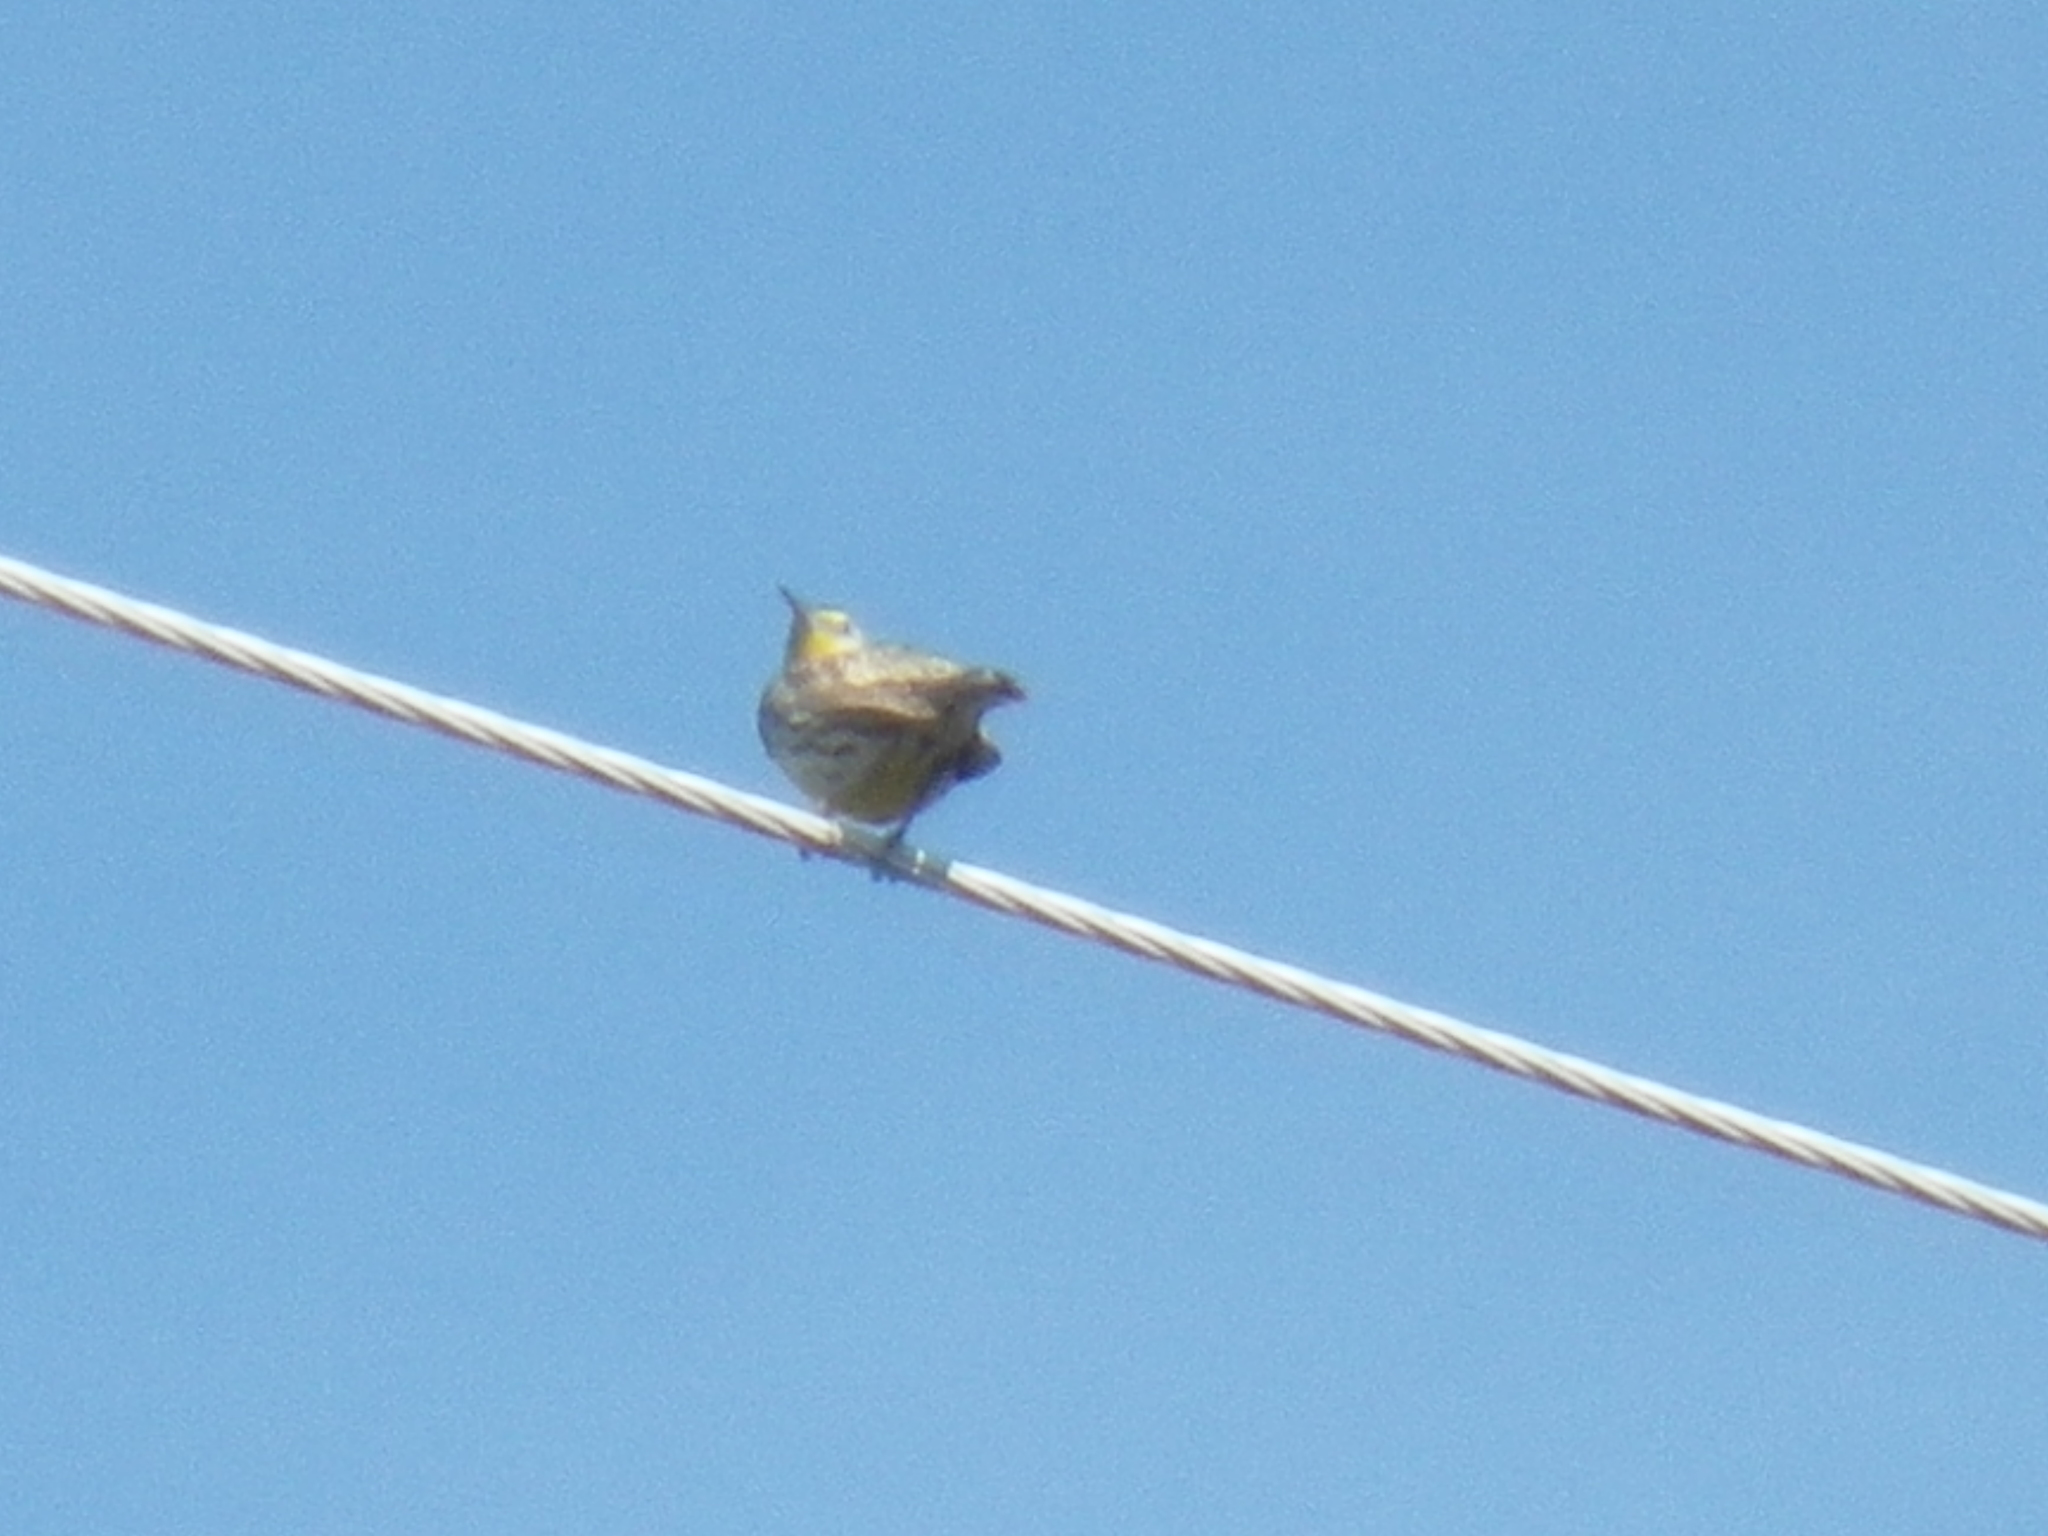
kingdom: Animalia
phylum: Chordata
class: Aves
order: Passeriformes
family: Icteridae
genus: Sturnella
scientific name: Sturnella neglecta
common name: Western meadowlark
